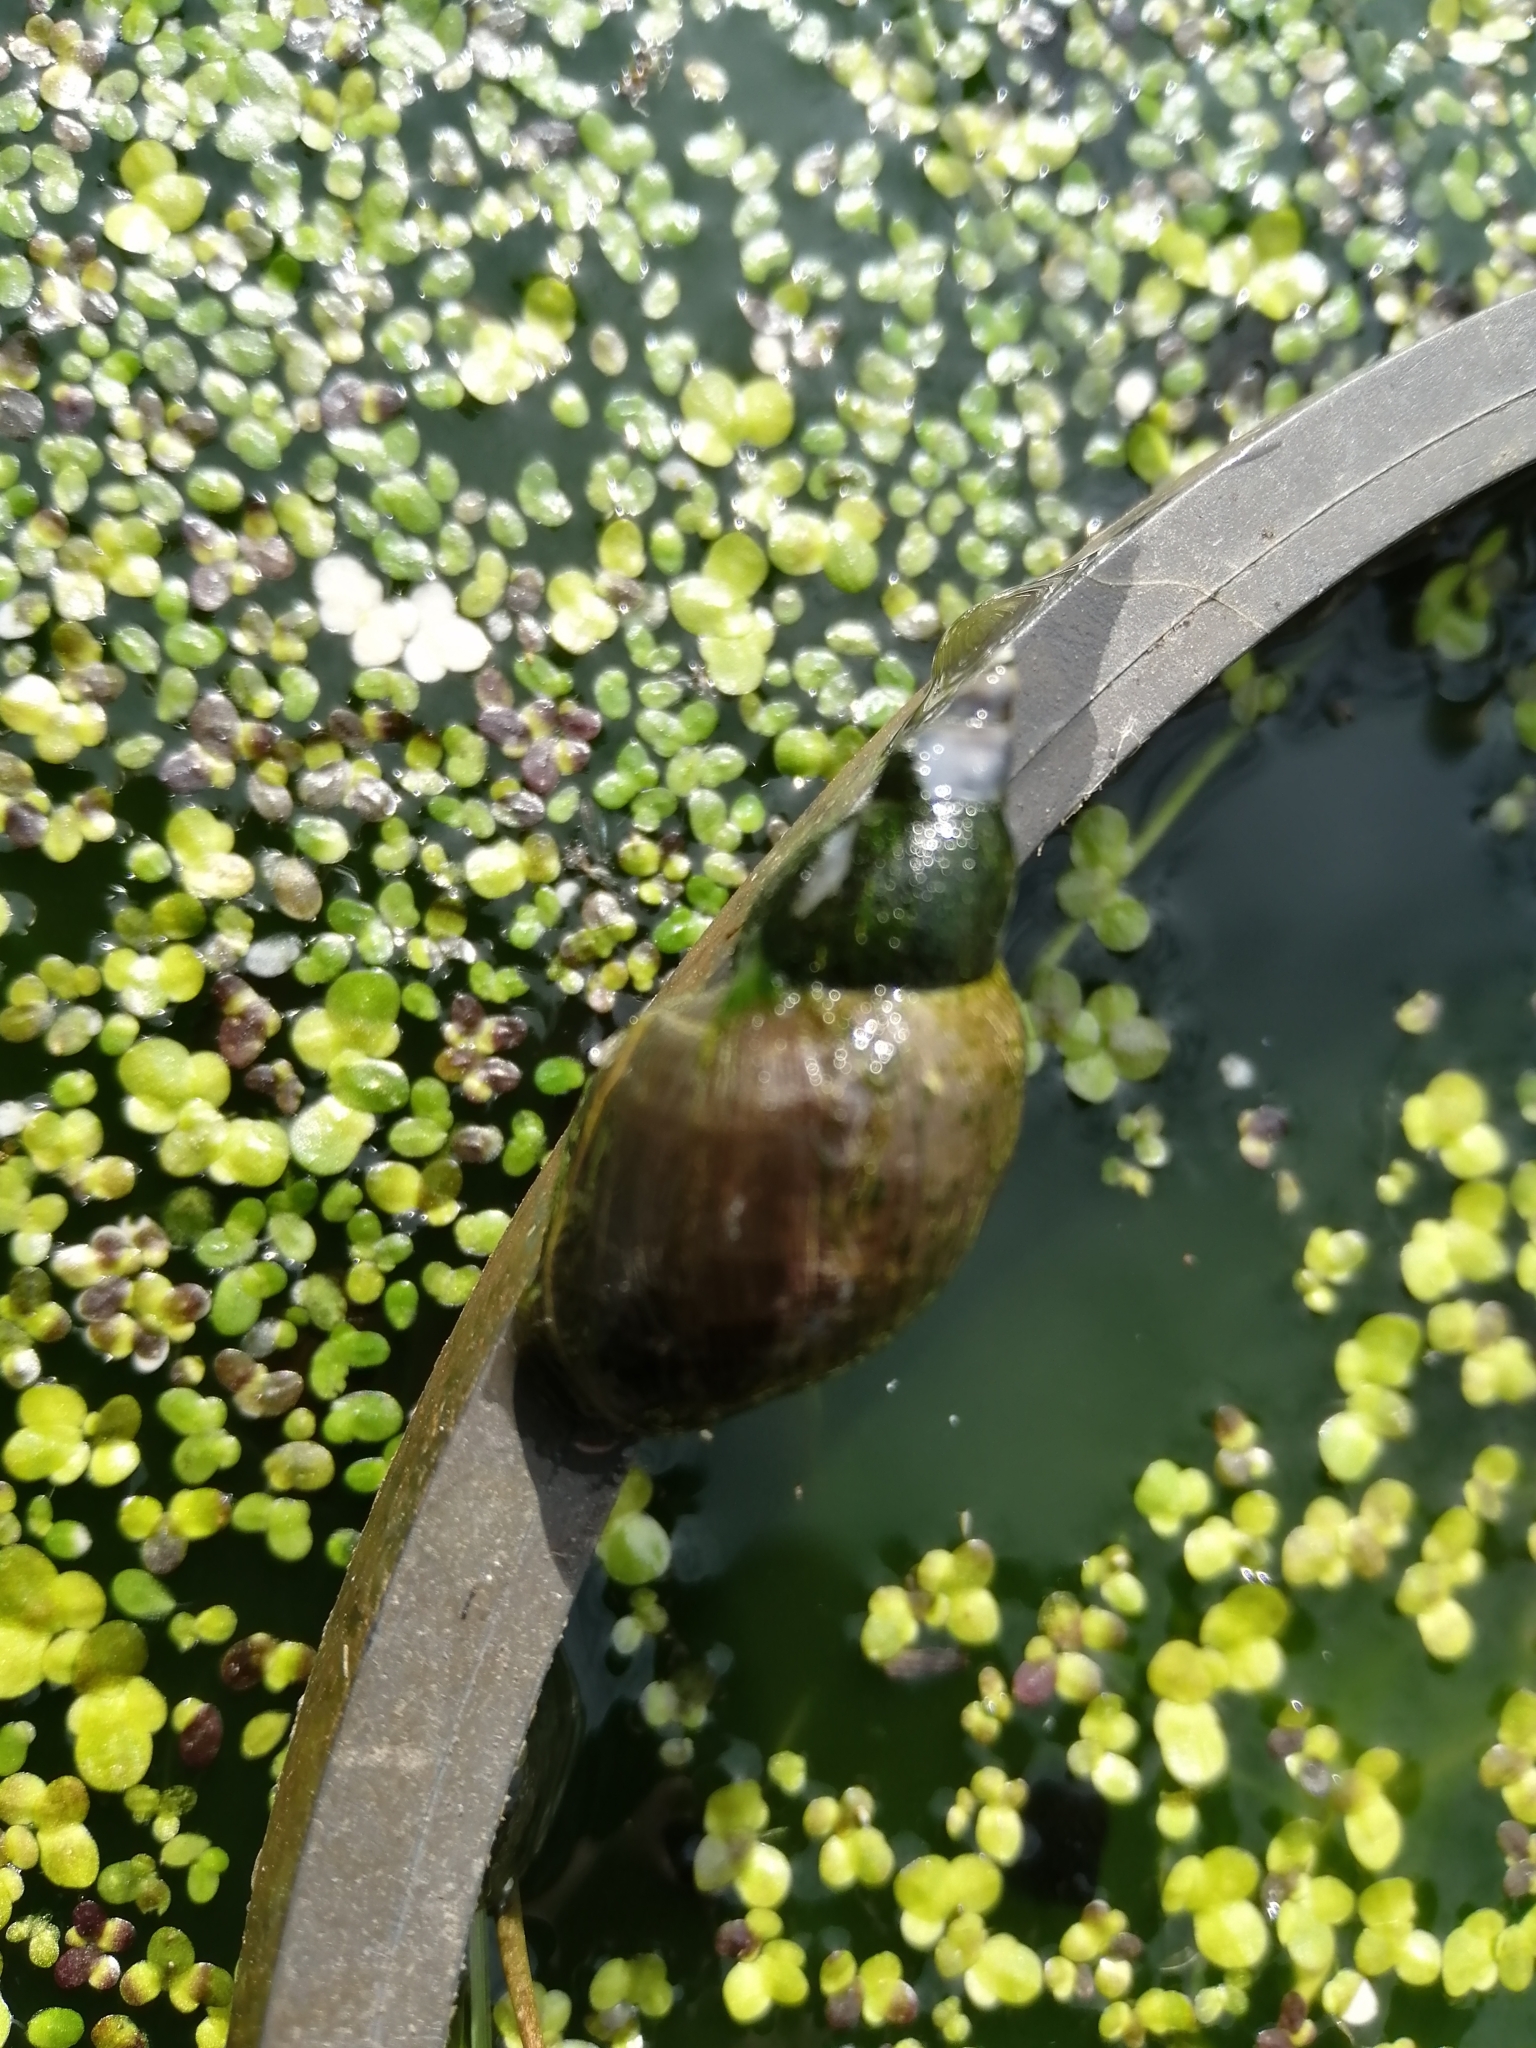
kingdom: Animalia
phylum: Mollusca
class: Gastropoda
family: Lymnaeidae
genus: Lymnaea
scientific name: Lymnaea stagnalis
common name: Great pond snail
